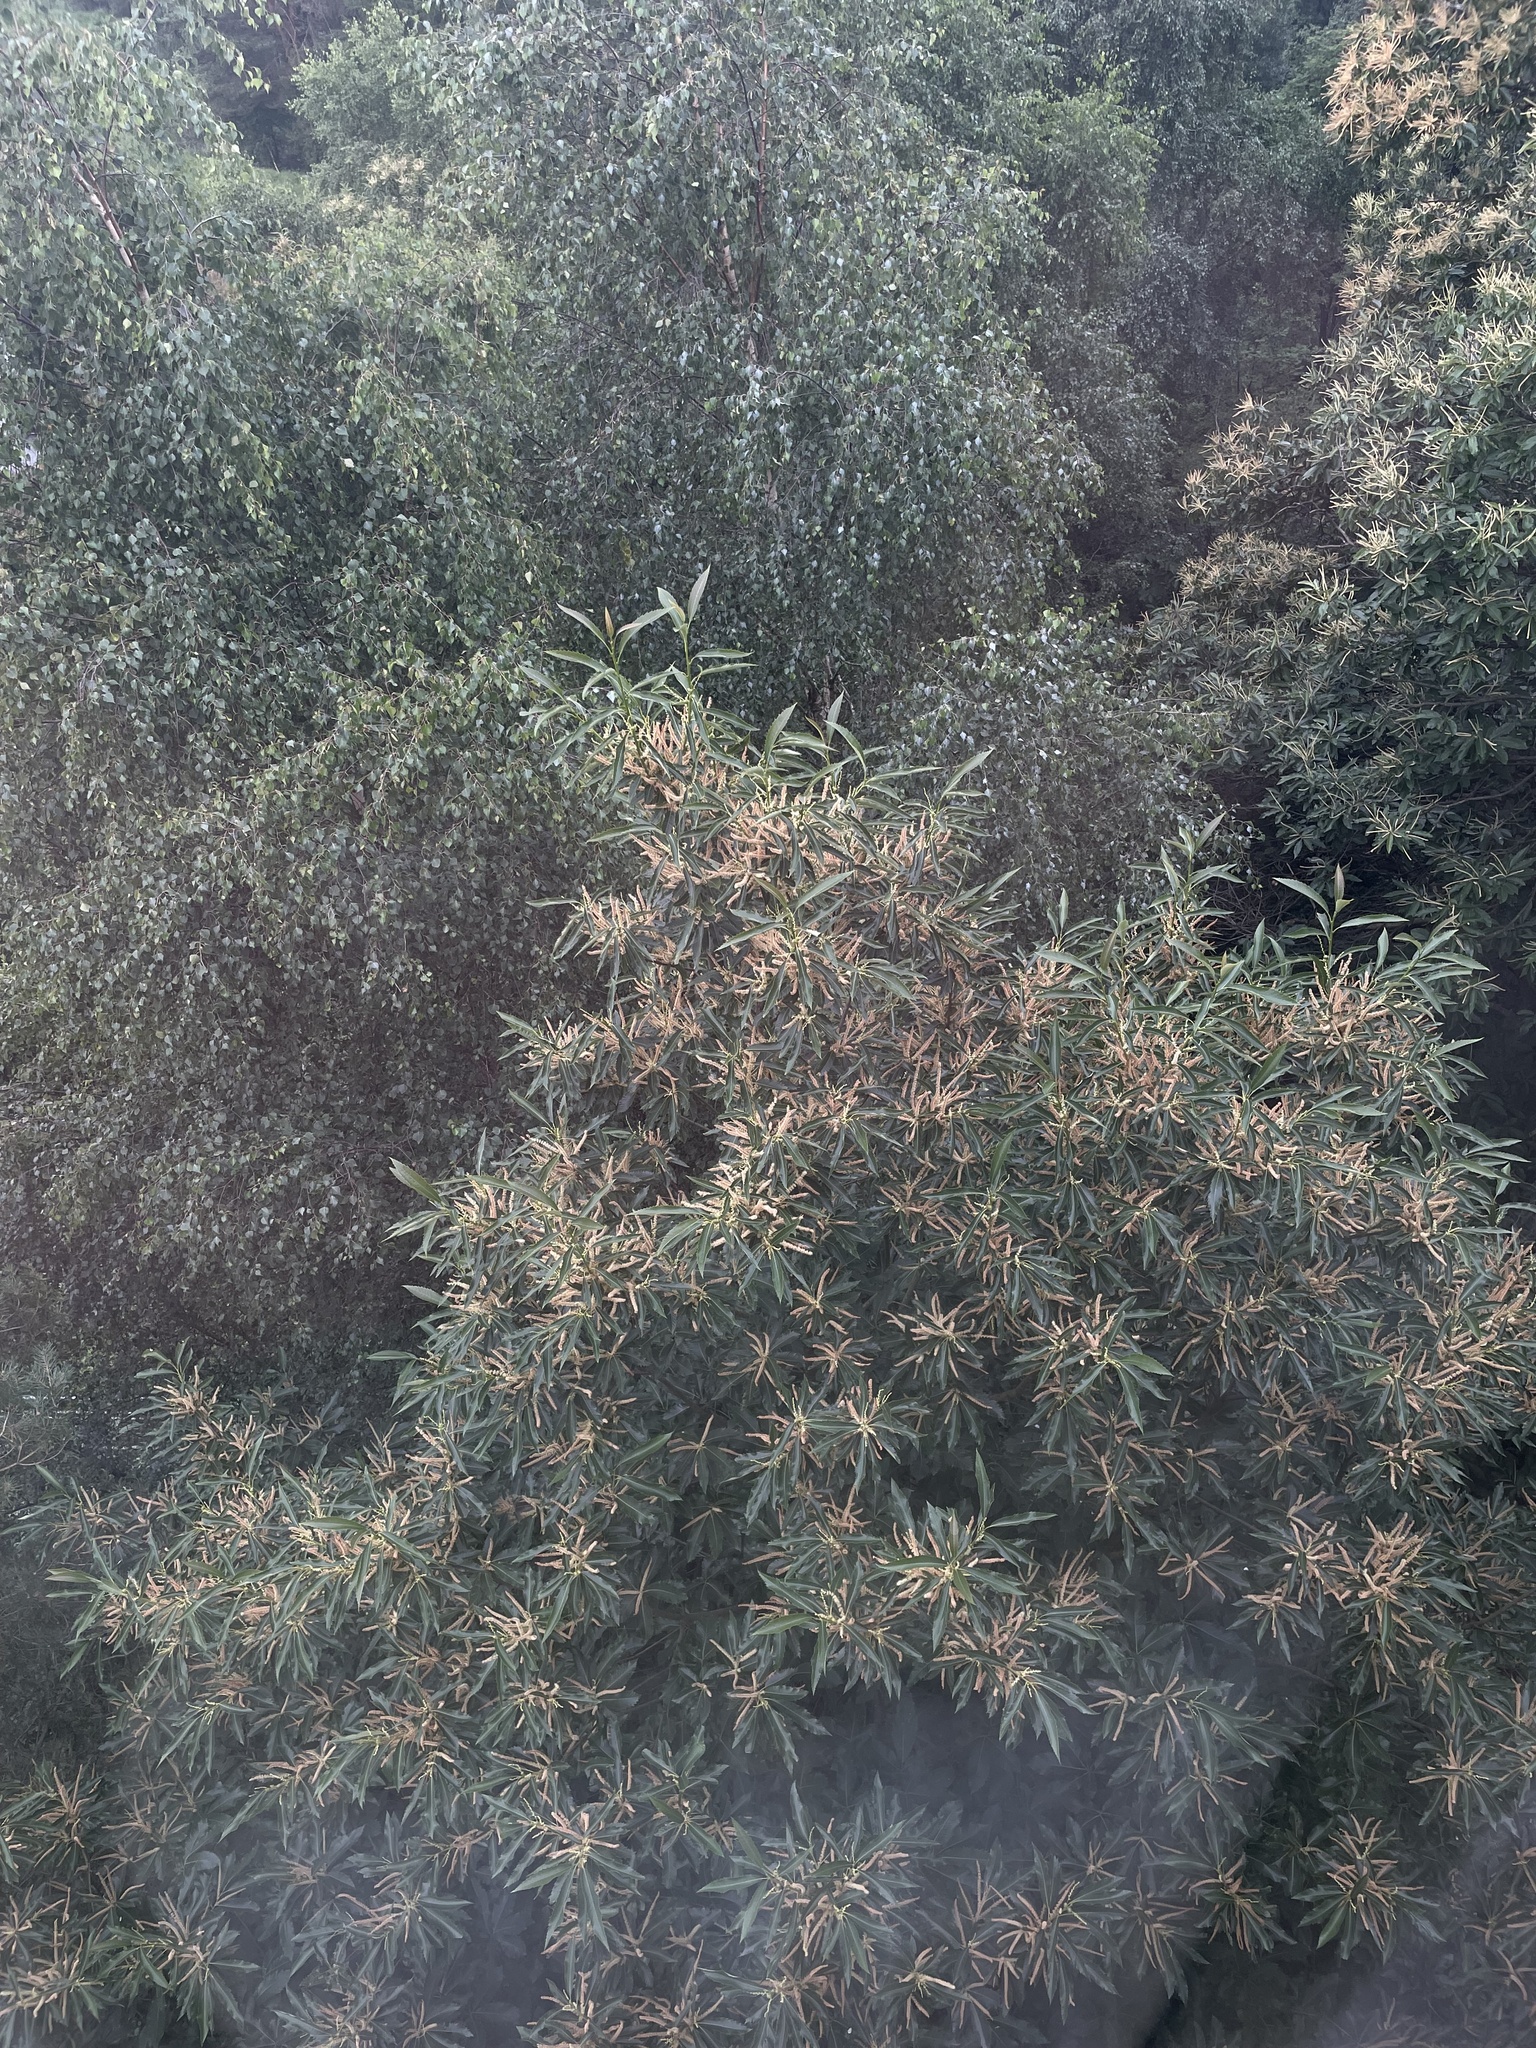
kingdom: Plantae
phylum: Tracheophyta
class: Magnoliopsida
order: Fagales
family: Fagaceae
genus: Castanea
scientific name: Castanea sativa
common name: Sweet chestnut
